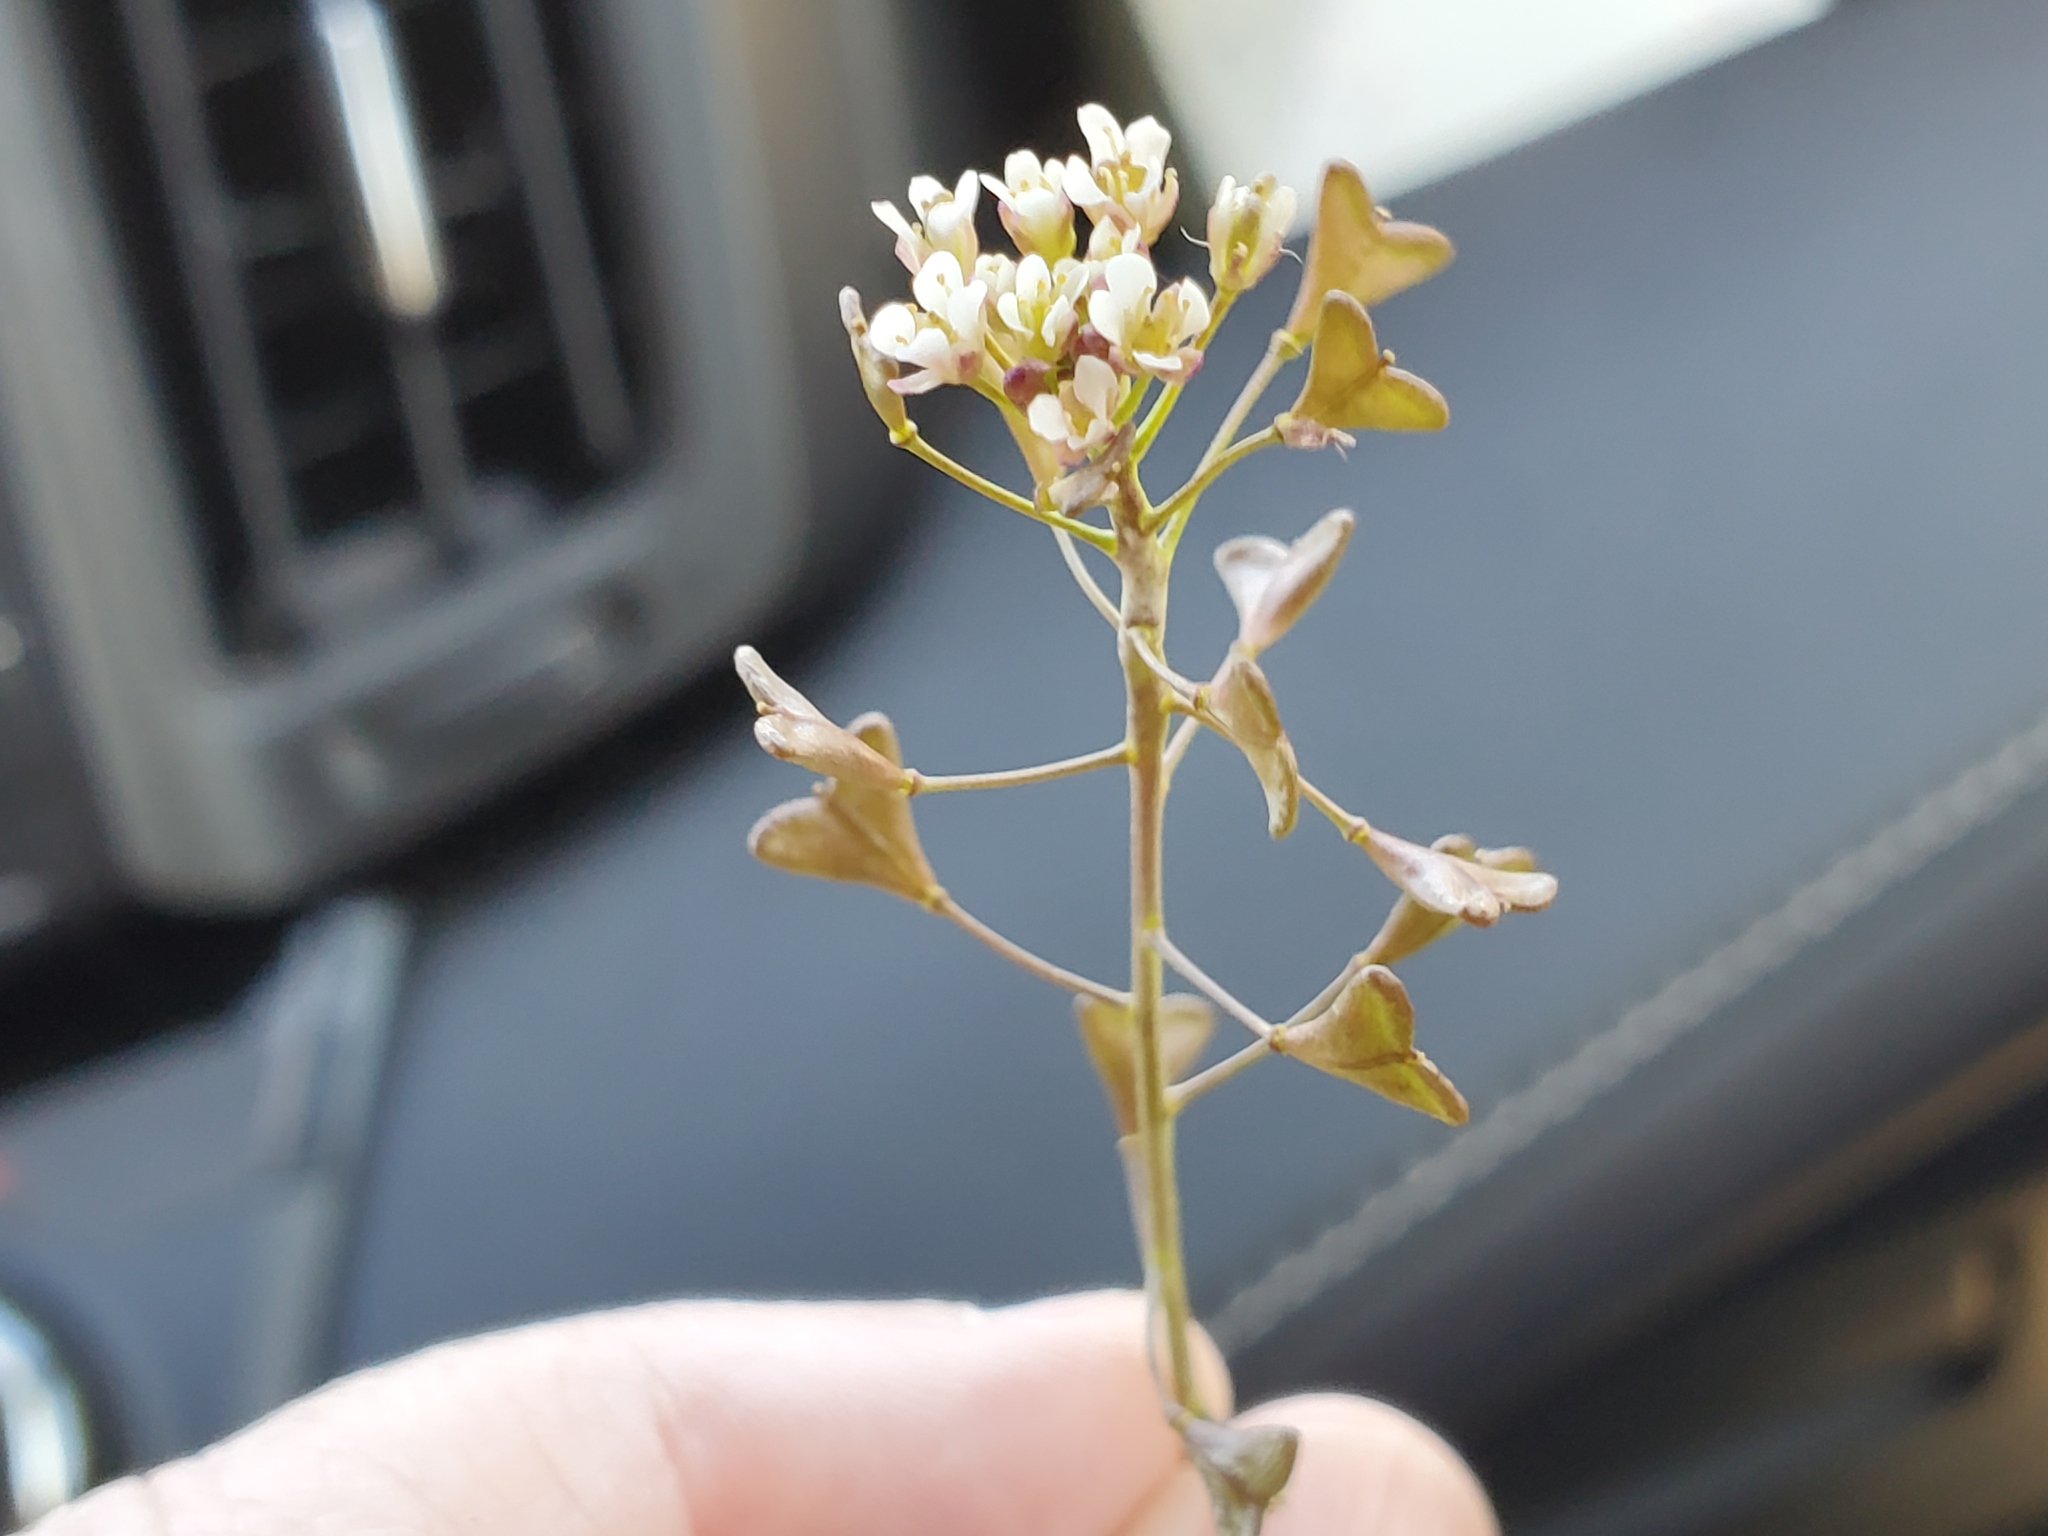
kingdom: Plantae
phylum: Tracheophyta
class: Magnoliopsida
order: Brassicales
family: Brassicaceae
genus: Capsella
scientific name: Capsella bursa-pastoris
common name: Shepherd's purse
